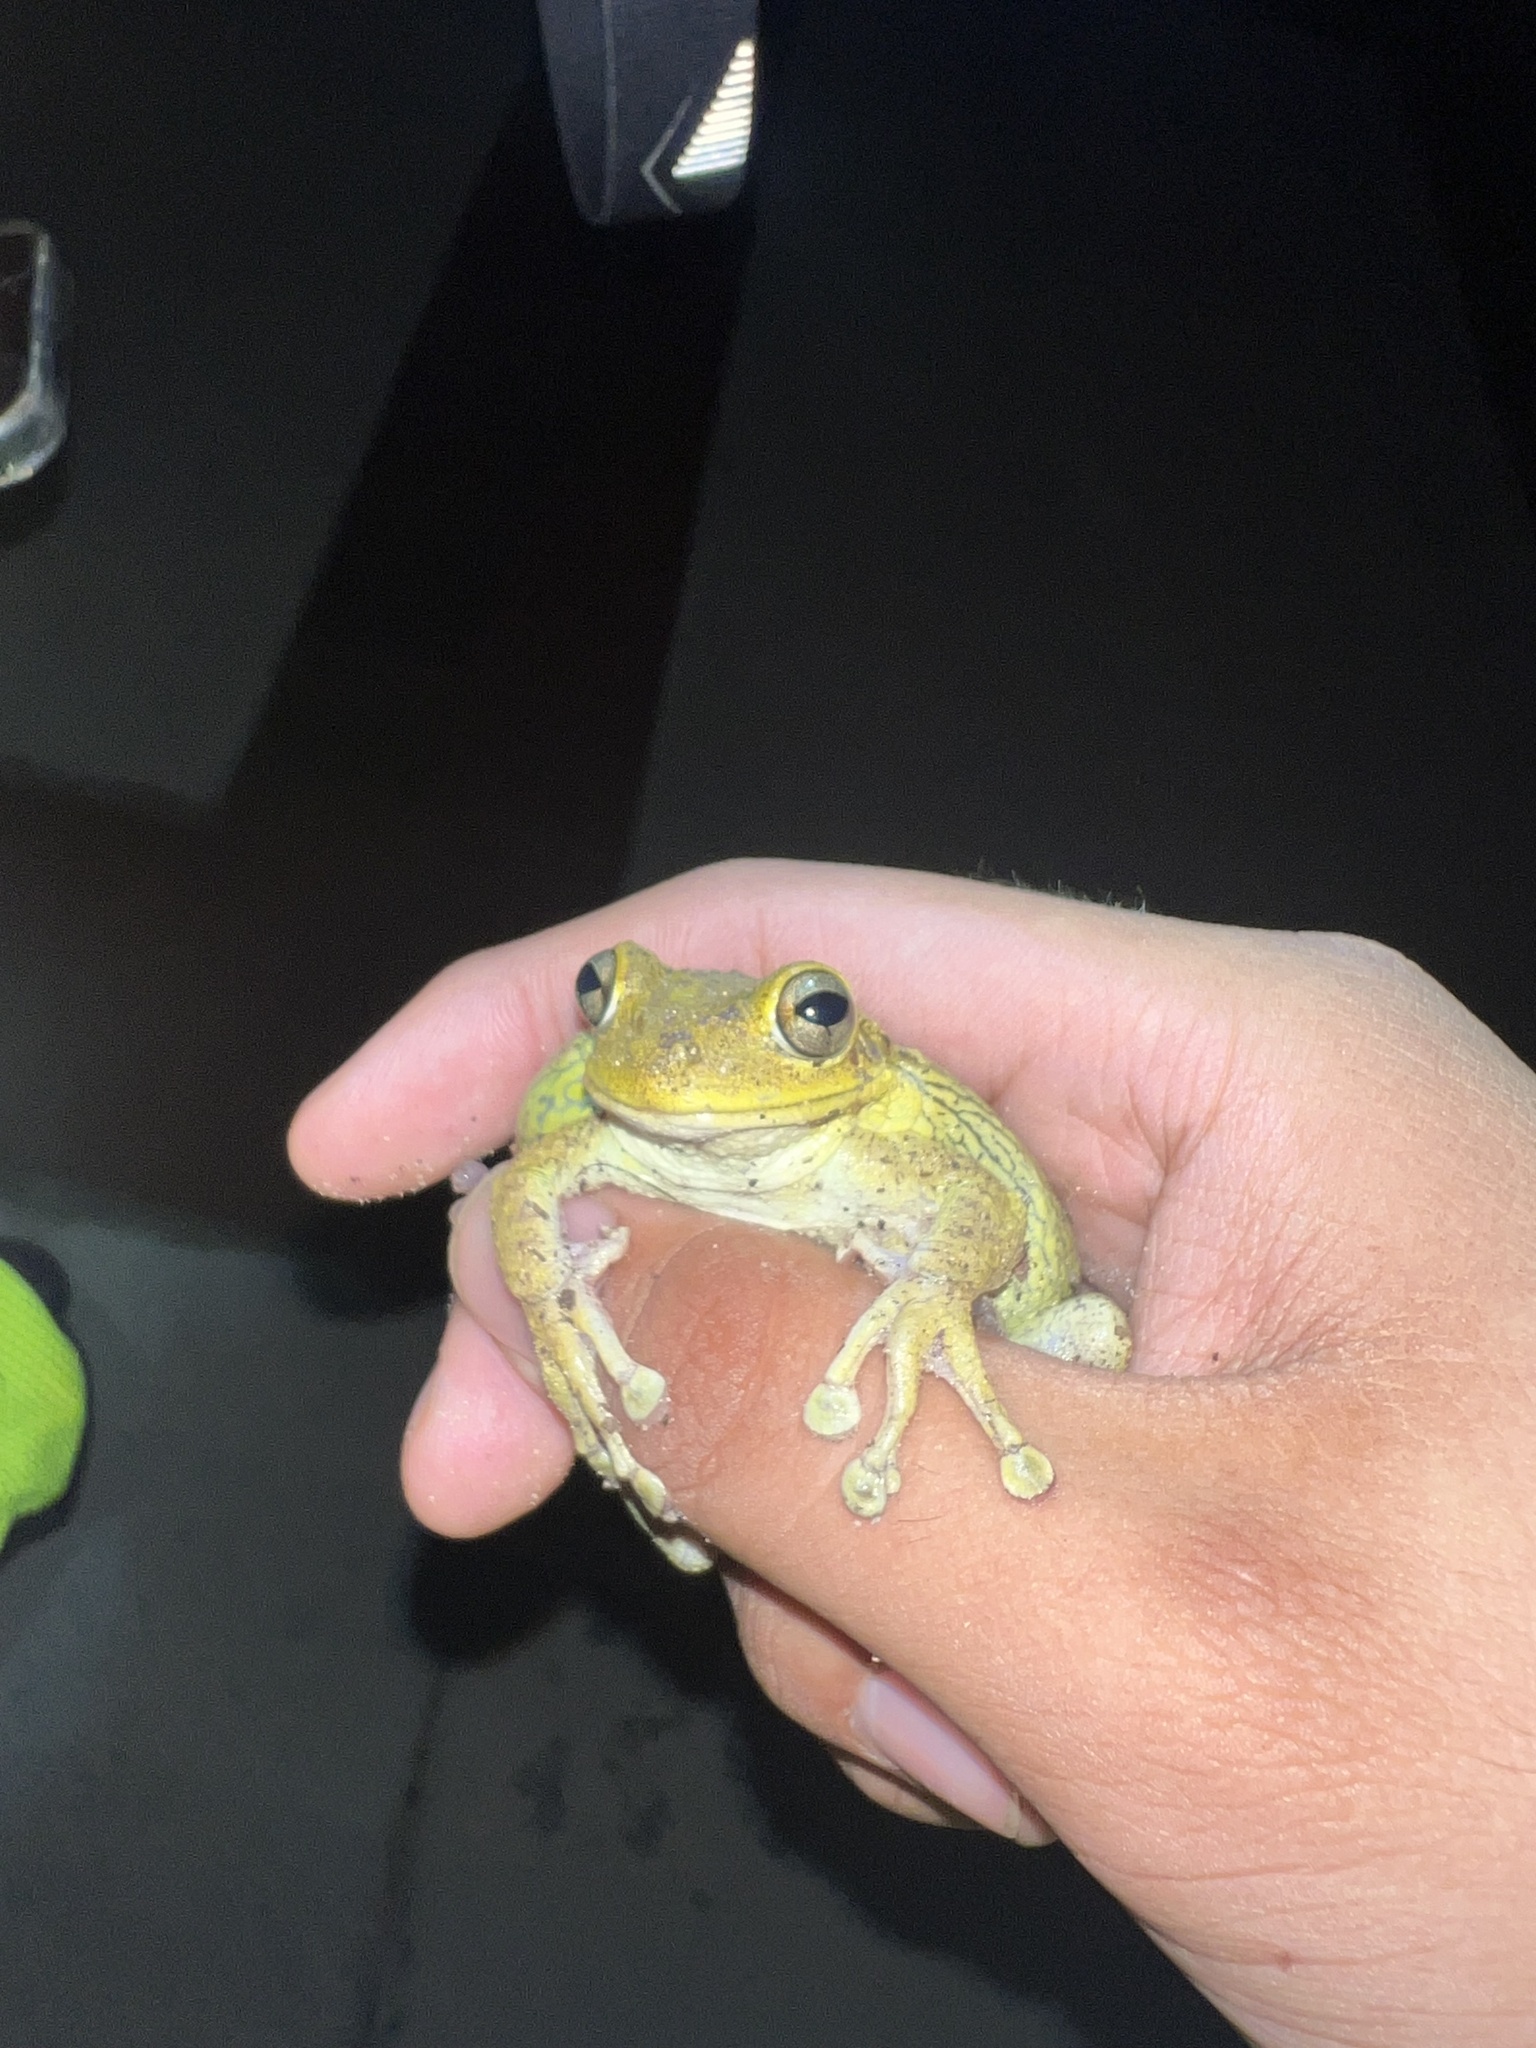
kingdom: Animalia
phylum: Chordata
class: Amphibia
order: Anura
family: Hylidae
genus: Osteopilus
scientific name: Osteopilus septentrionalis
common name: Cuban treefrog
